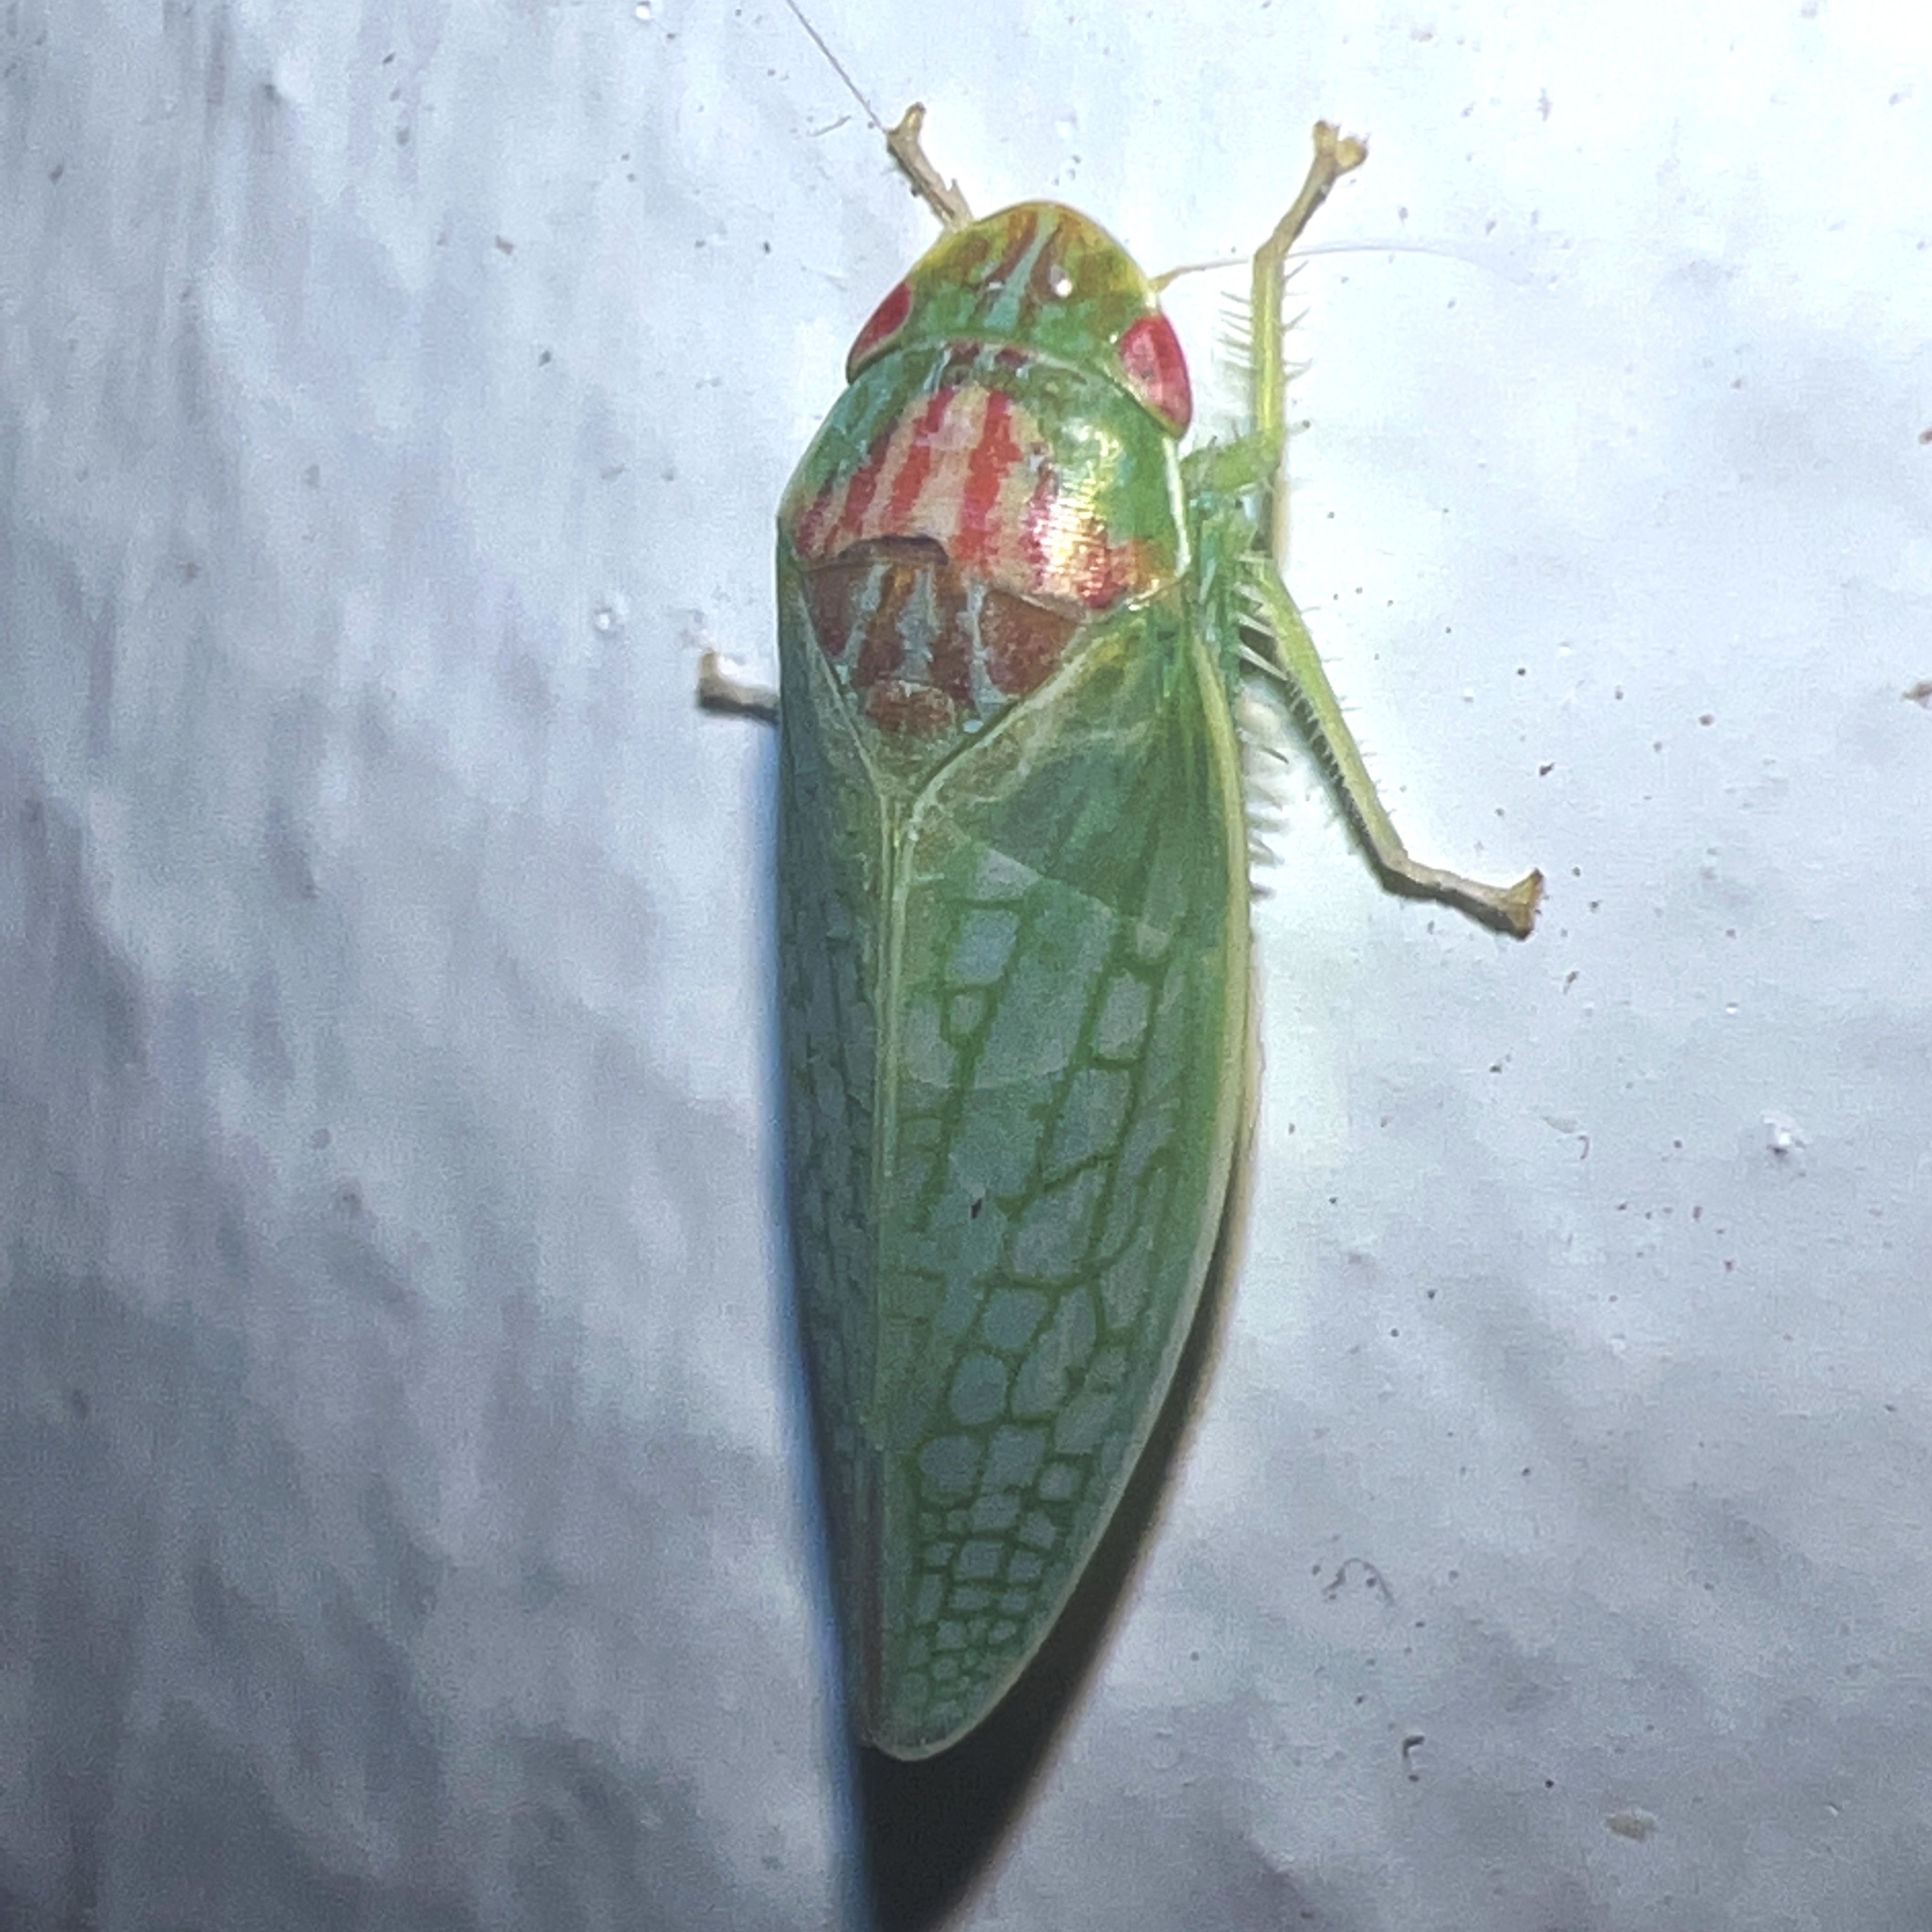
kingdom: Animalia
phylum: Arthropoda
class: Insecta
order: Hemiptera
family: Cicadellidae
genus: Gyponana
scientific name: Gyponana octolineata
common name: Eight-lined leafhopper
